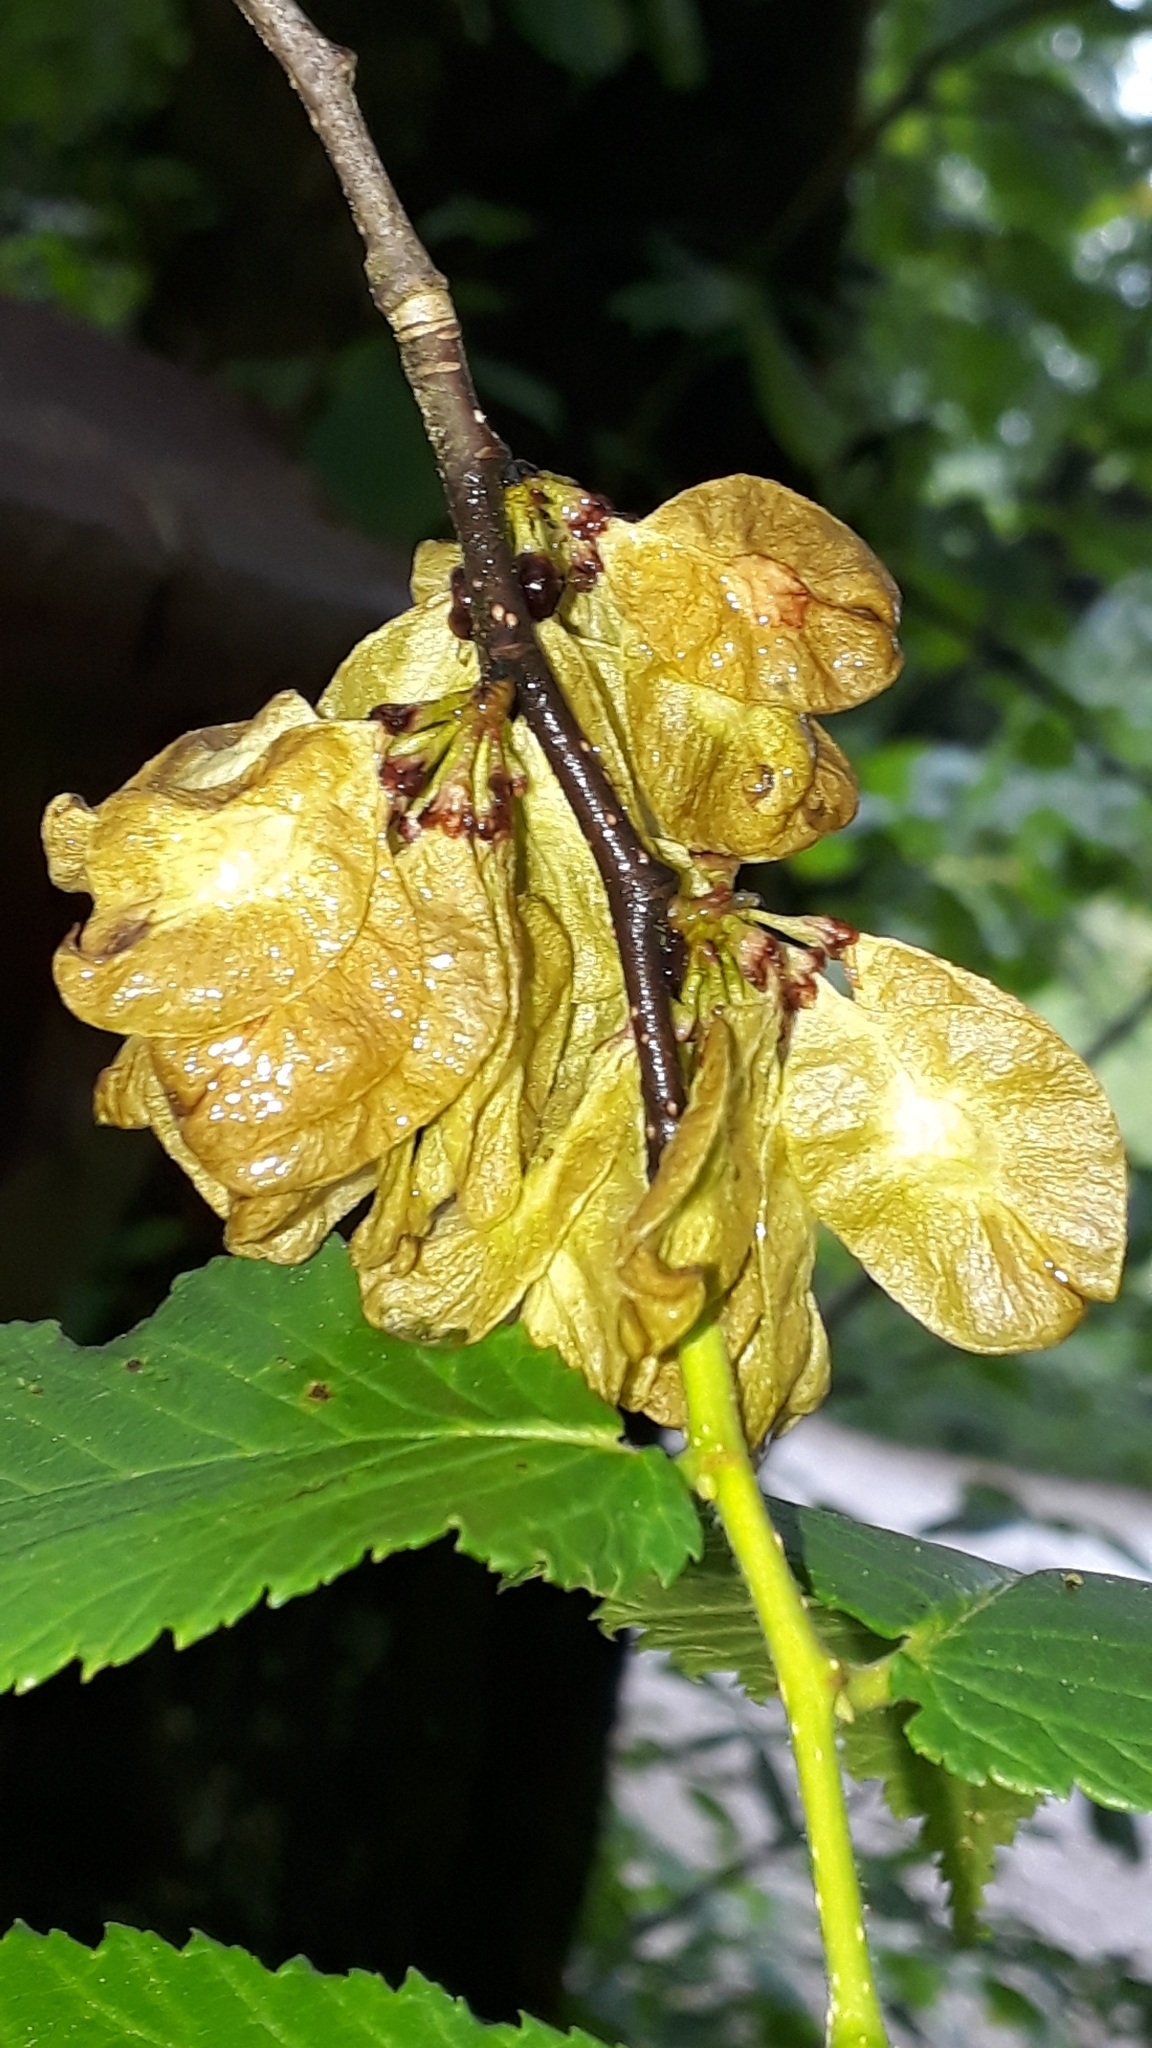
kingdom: Plantae
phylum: Tracheophyta
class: Magnoliopsida
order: Rosales
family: Ulmaceae
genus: Ulmus
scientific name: Ulmus glabra
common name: Wych elm
